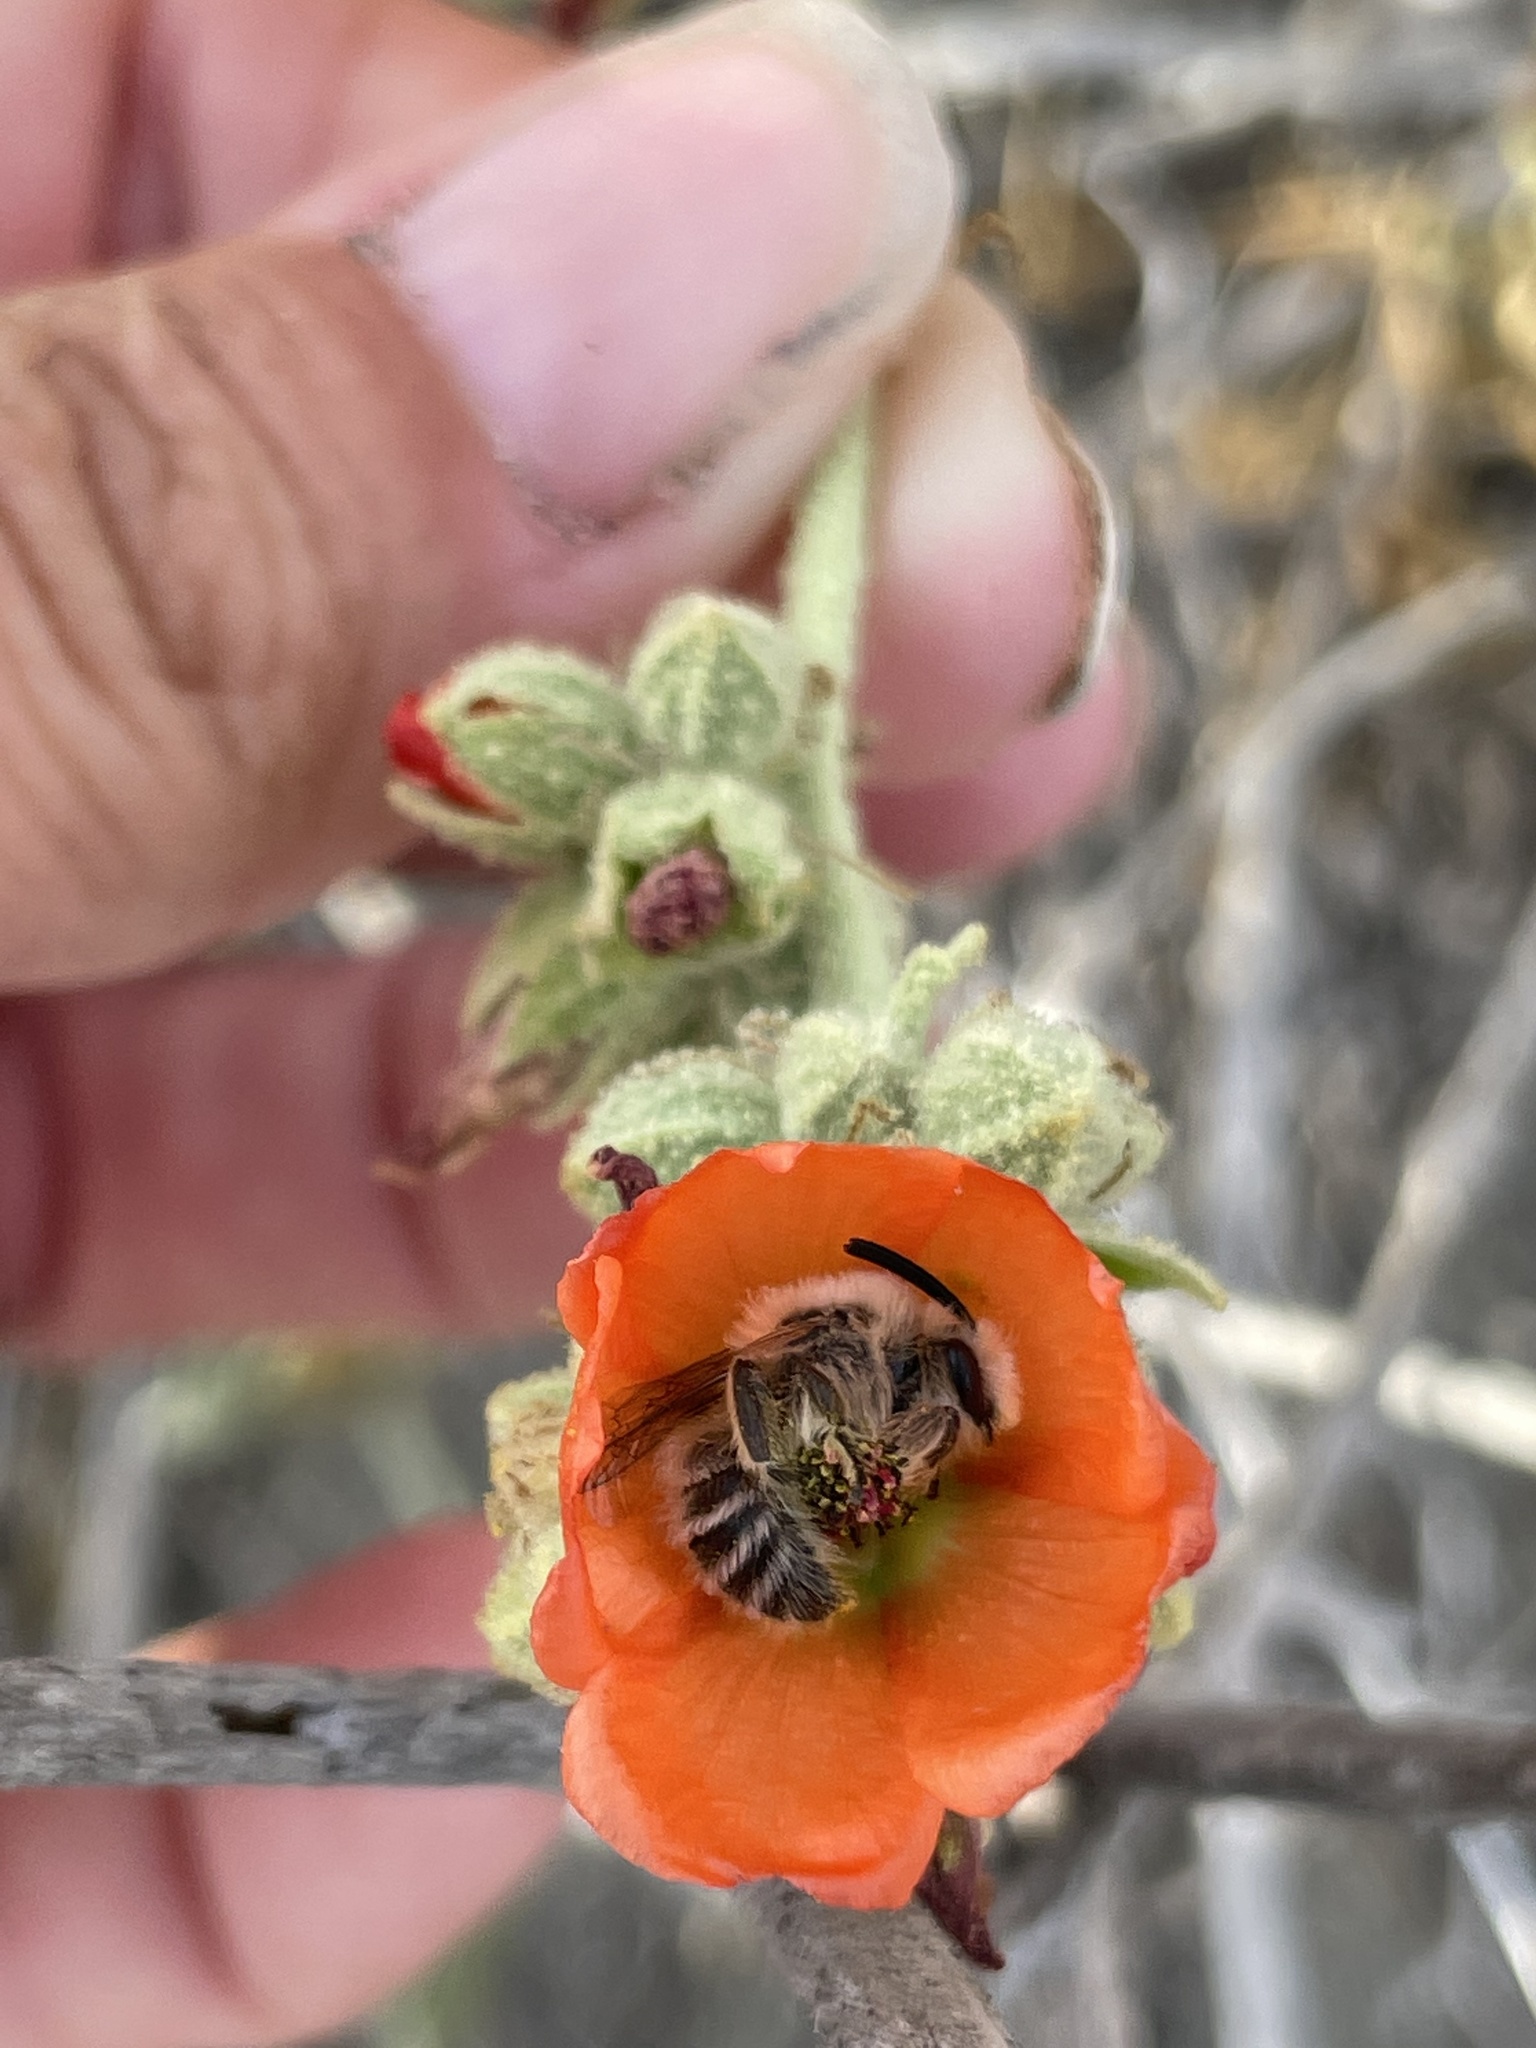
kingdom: Animalia
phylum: Arthropoda
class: Insecta
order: Hymenoptera
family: Apidae
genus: Diadasia
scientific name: Diadasia
